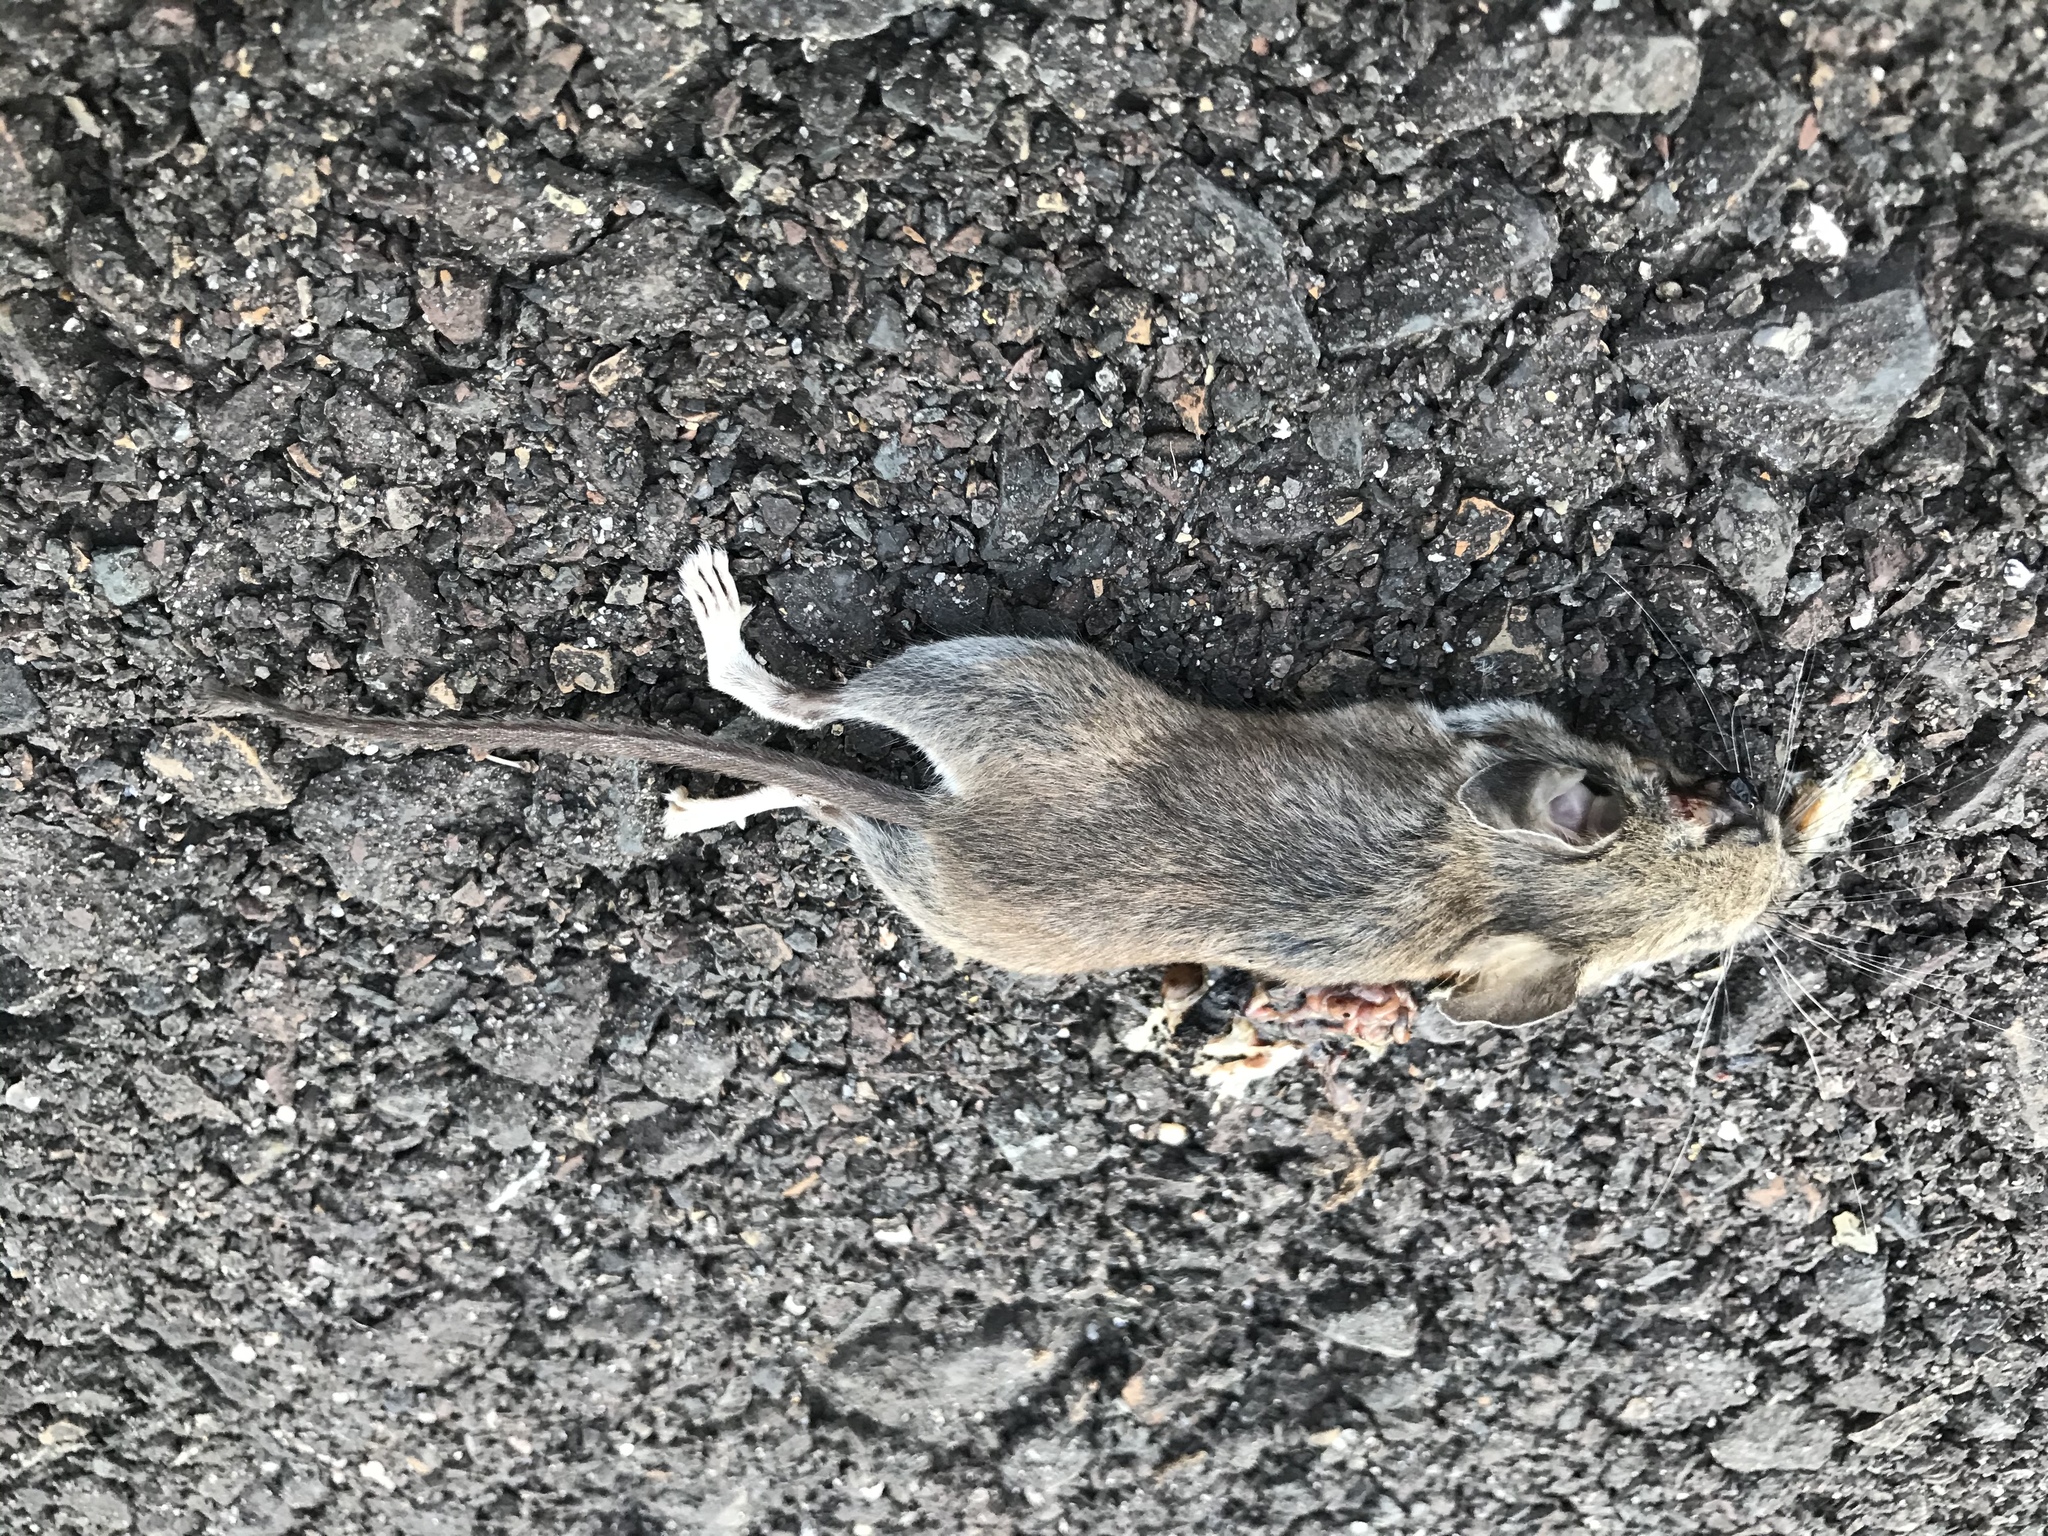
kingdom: Animalia
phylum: Chordata
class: Mammalia
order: Rodentia
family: Cricetidae
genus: Peromyscus
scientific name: Peromyscus leucopus
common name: White-footed deermouse
